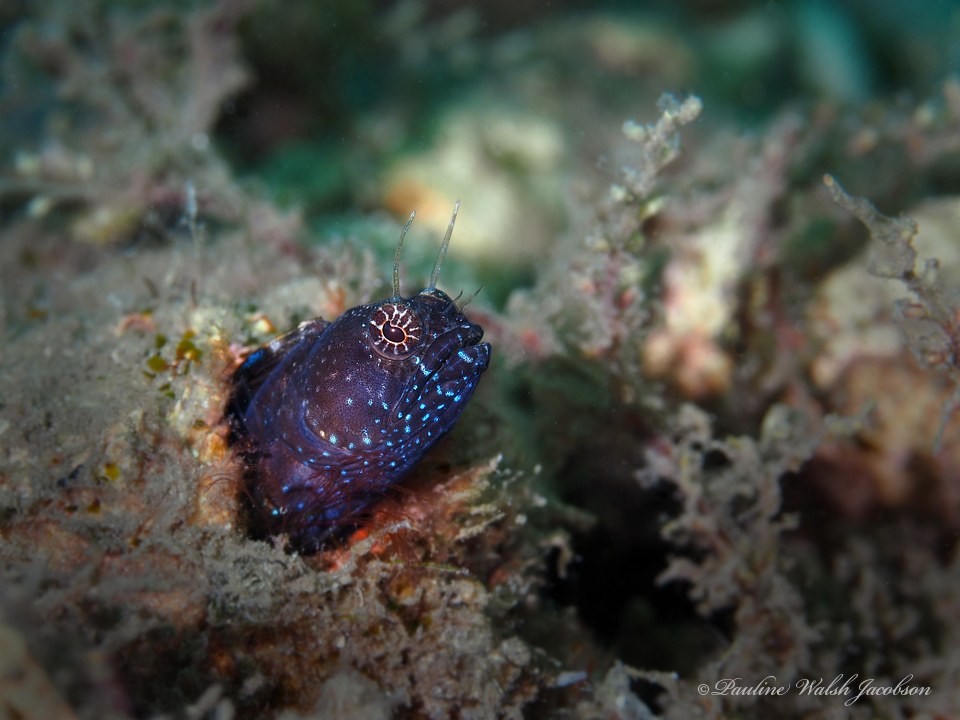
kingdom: Animalia
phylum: Chordata
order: Perciformes
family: Chaenopsidae
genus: Emblemaria
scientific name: Emblemaria pandionis
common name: Sailfin blenny
